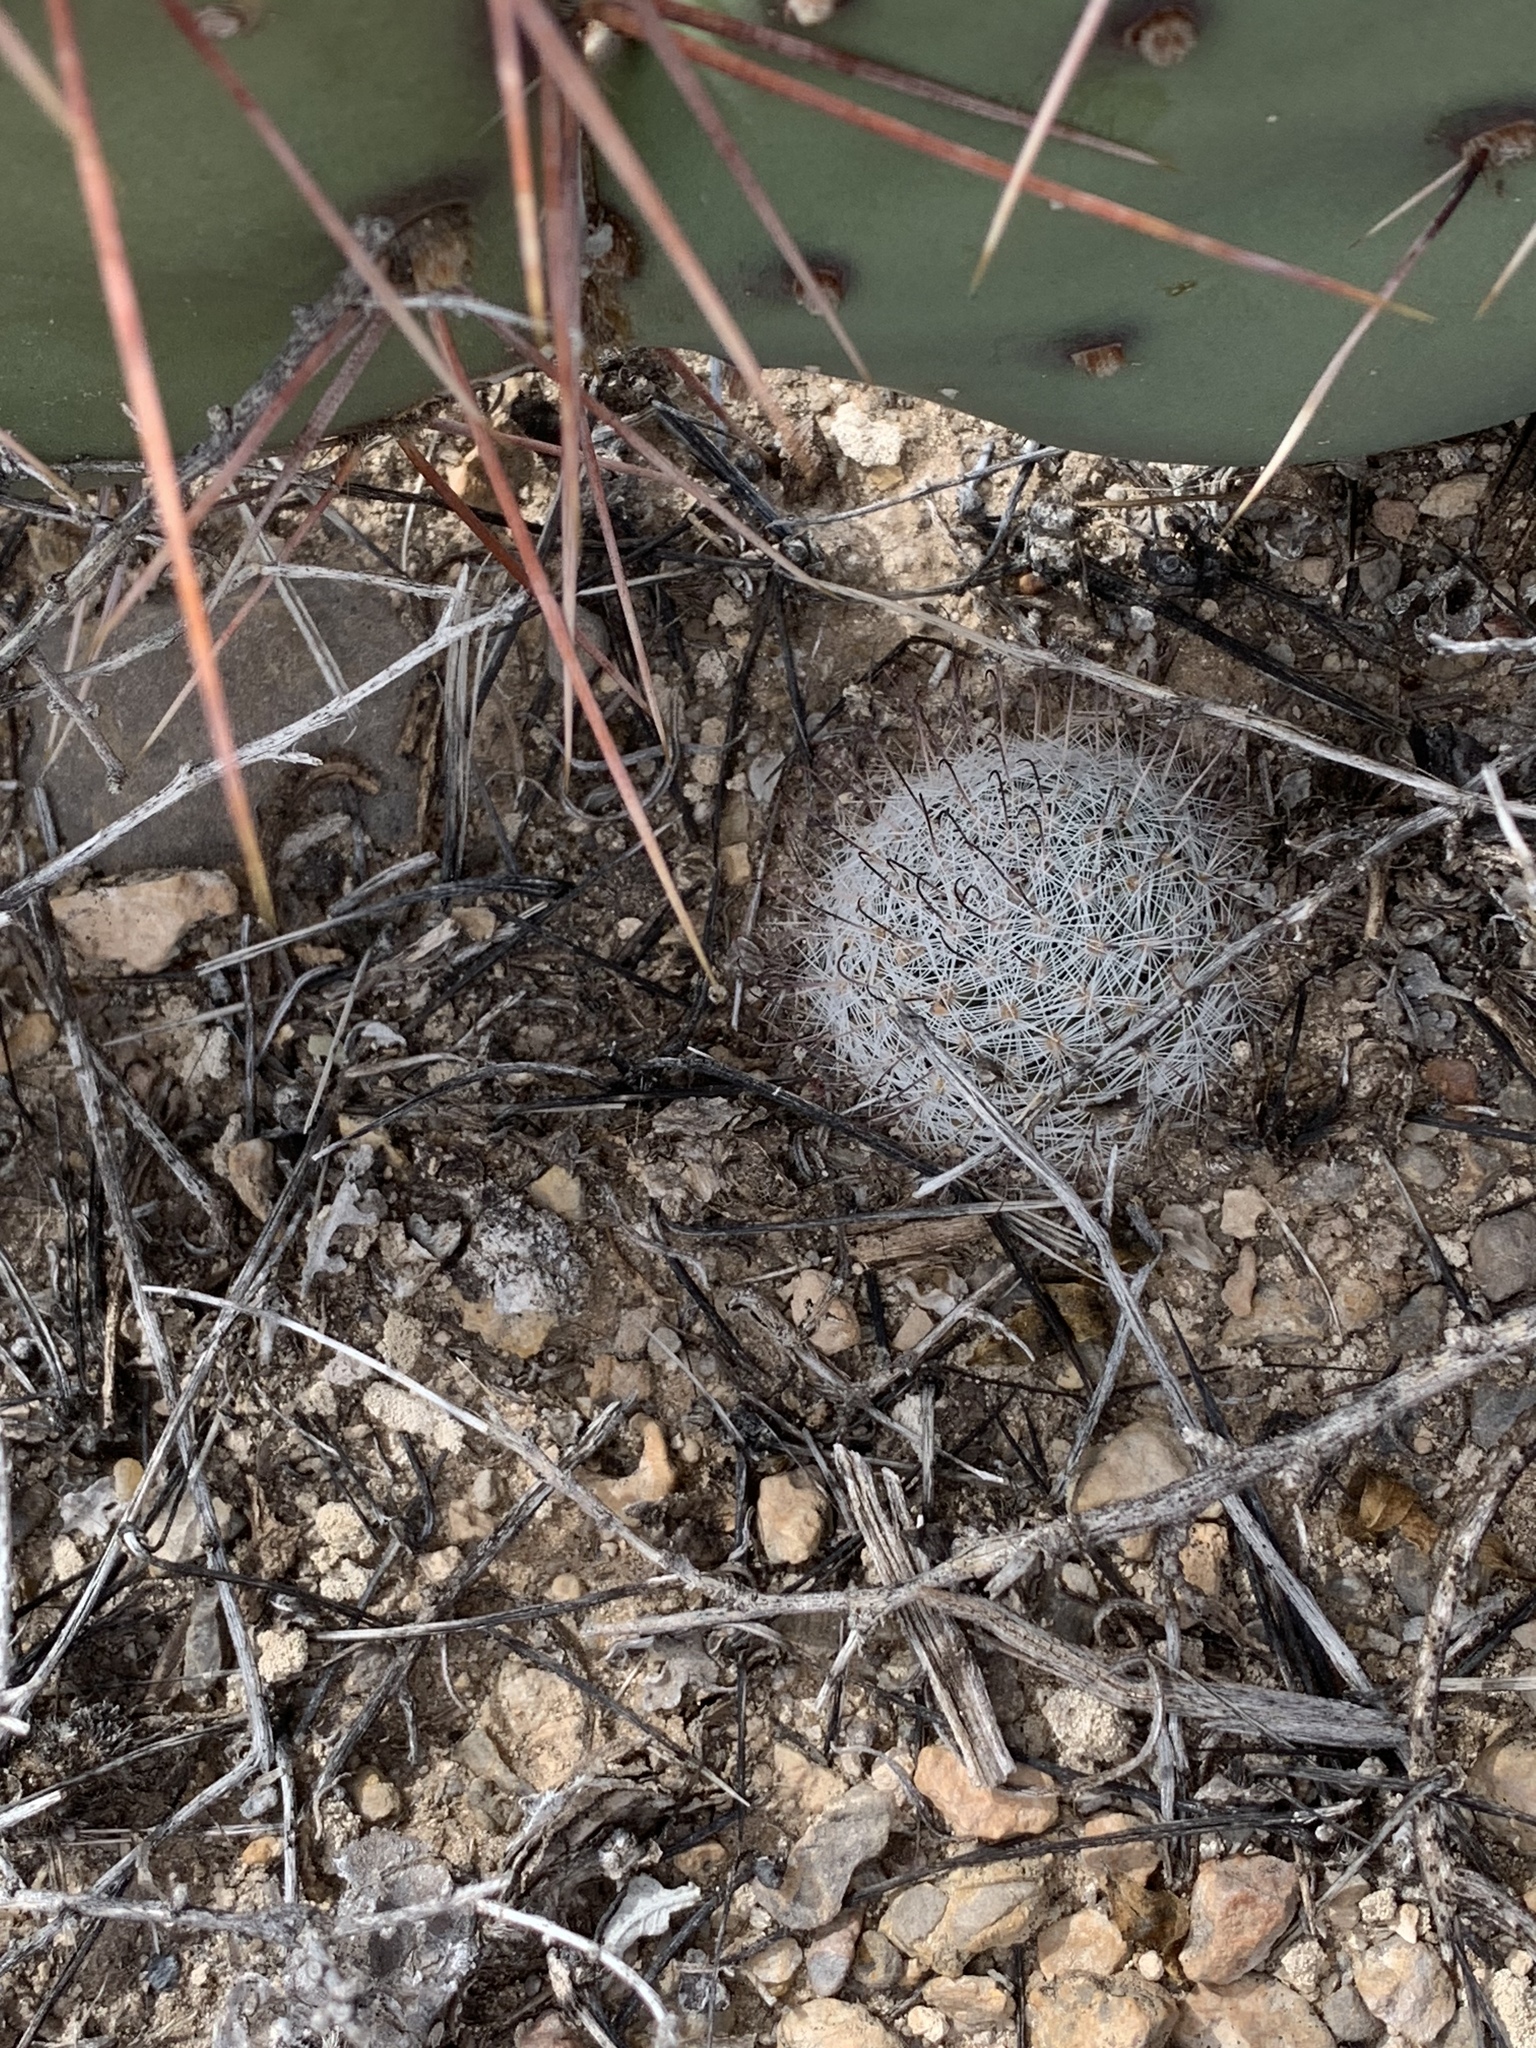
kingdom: Plantae
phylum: Tracheophyta
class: Magnoliopsida
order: Caryophyllales
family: Cactaceae
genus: Cochemiea
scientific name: Cochemiea grahamii
